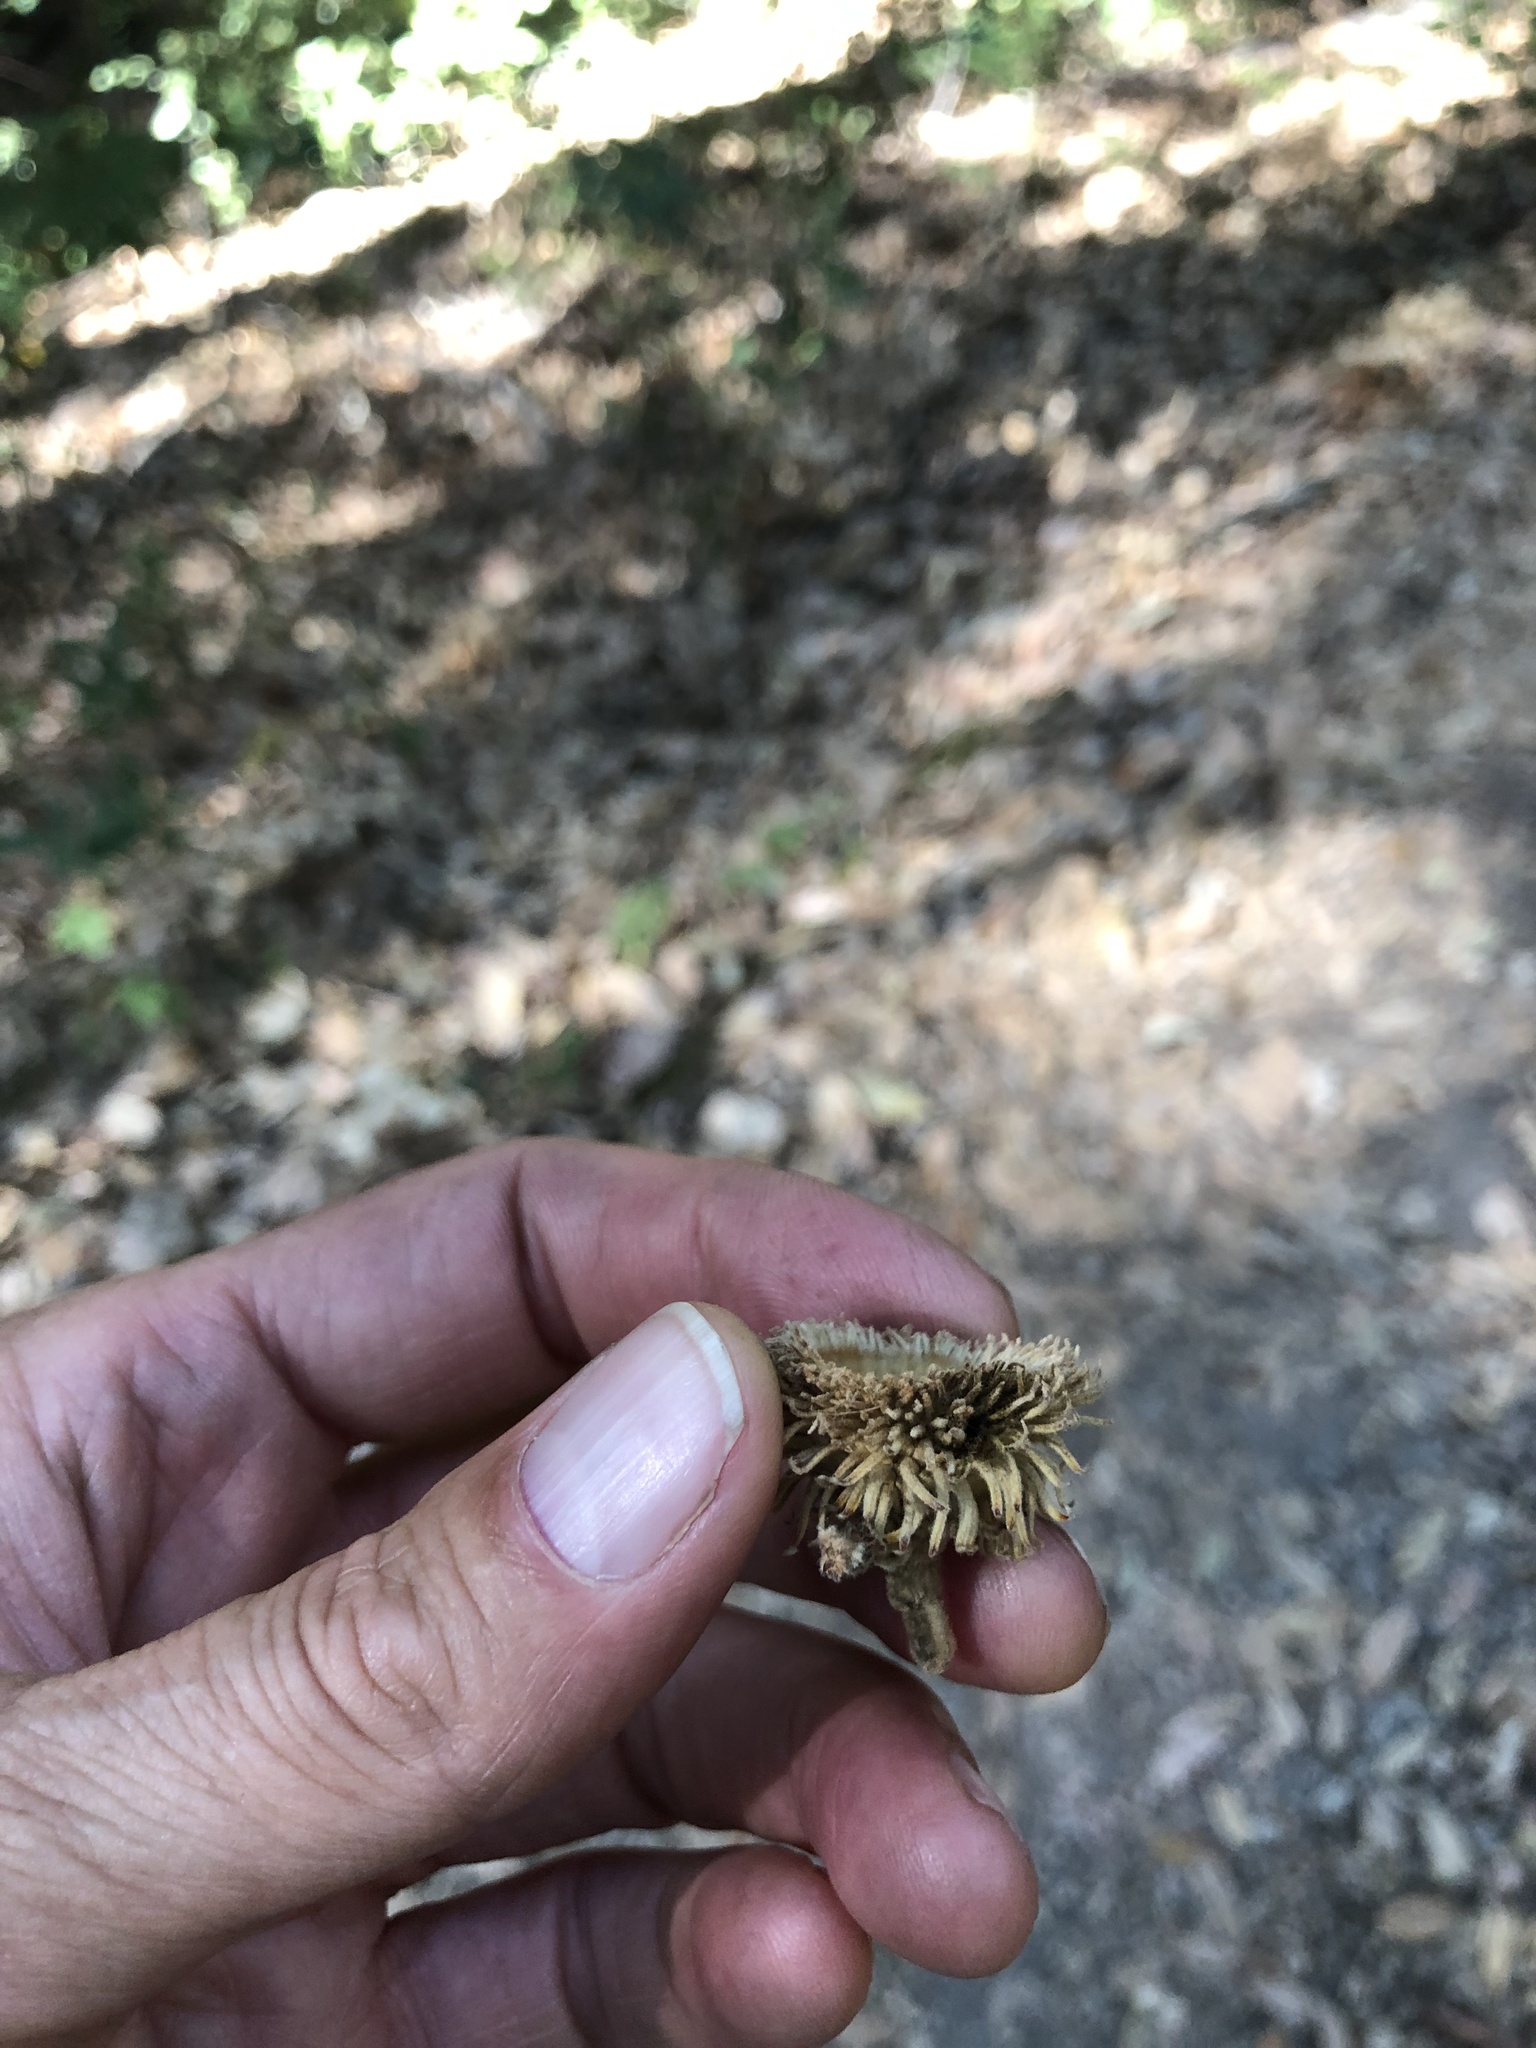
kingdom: Plantae
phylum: Tracheophyta
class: Magnoliopsida
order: Fagales
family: Fagaceae
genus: Notholithocarpus
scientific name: Notholithocarpus densiflorus
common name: Tan bark oak
